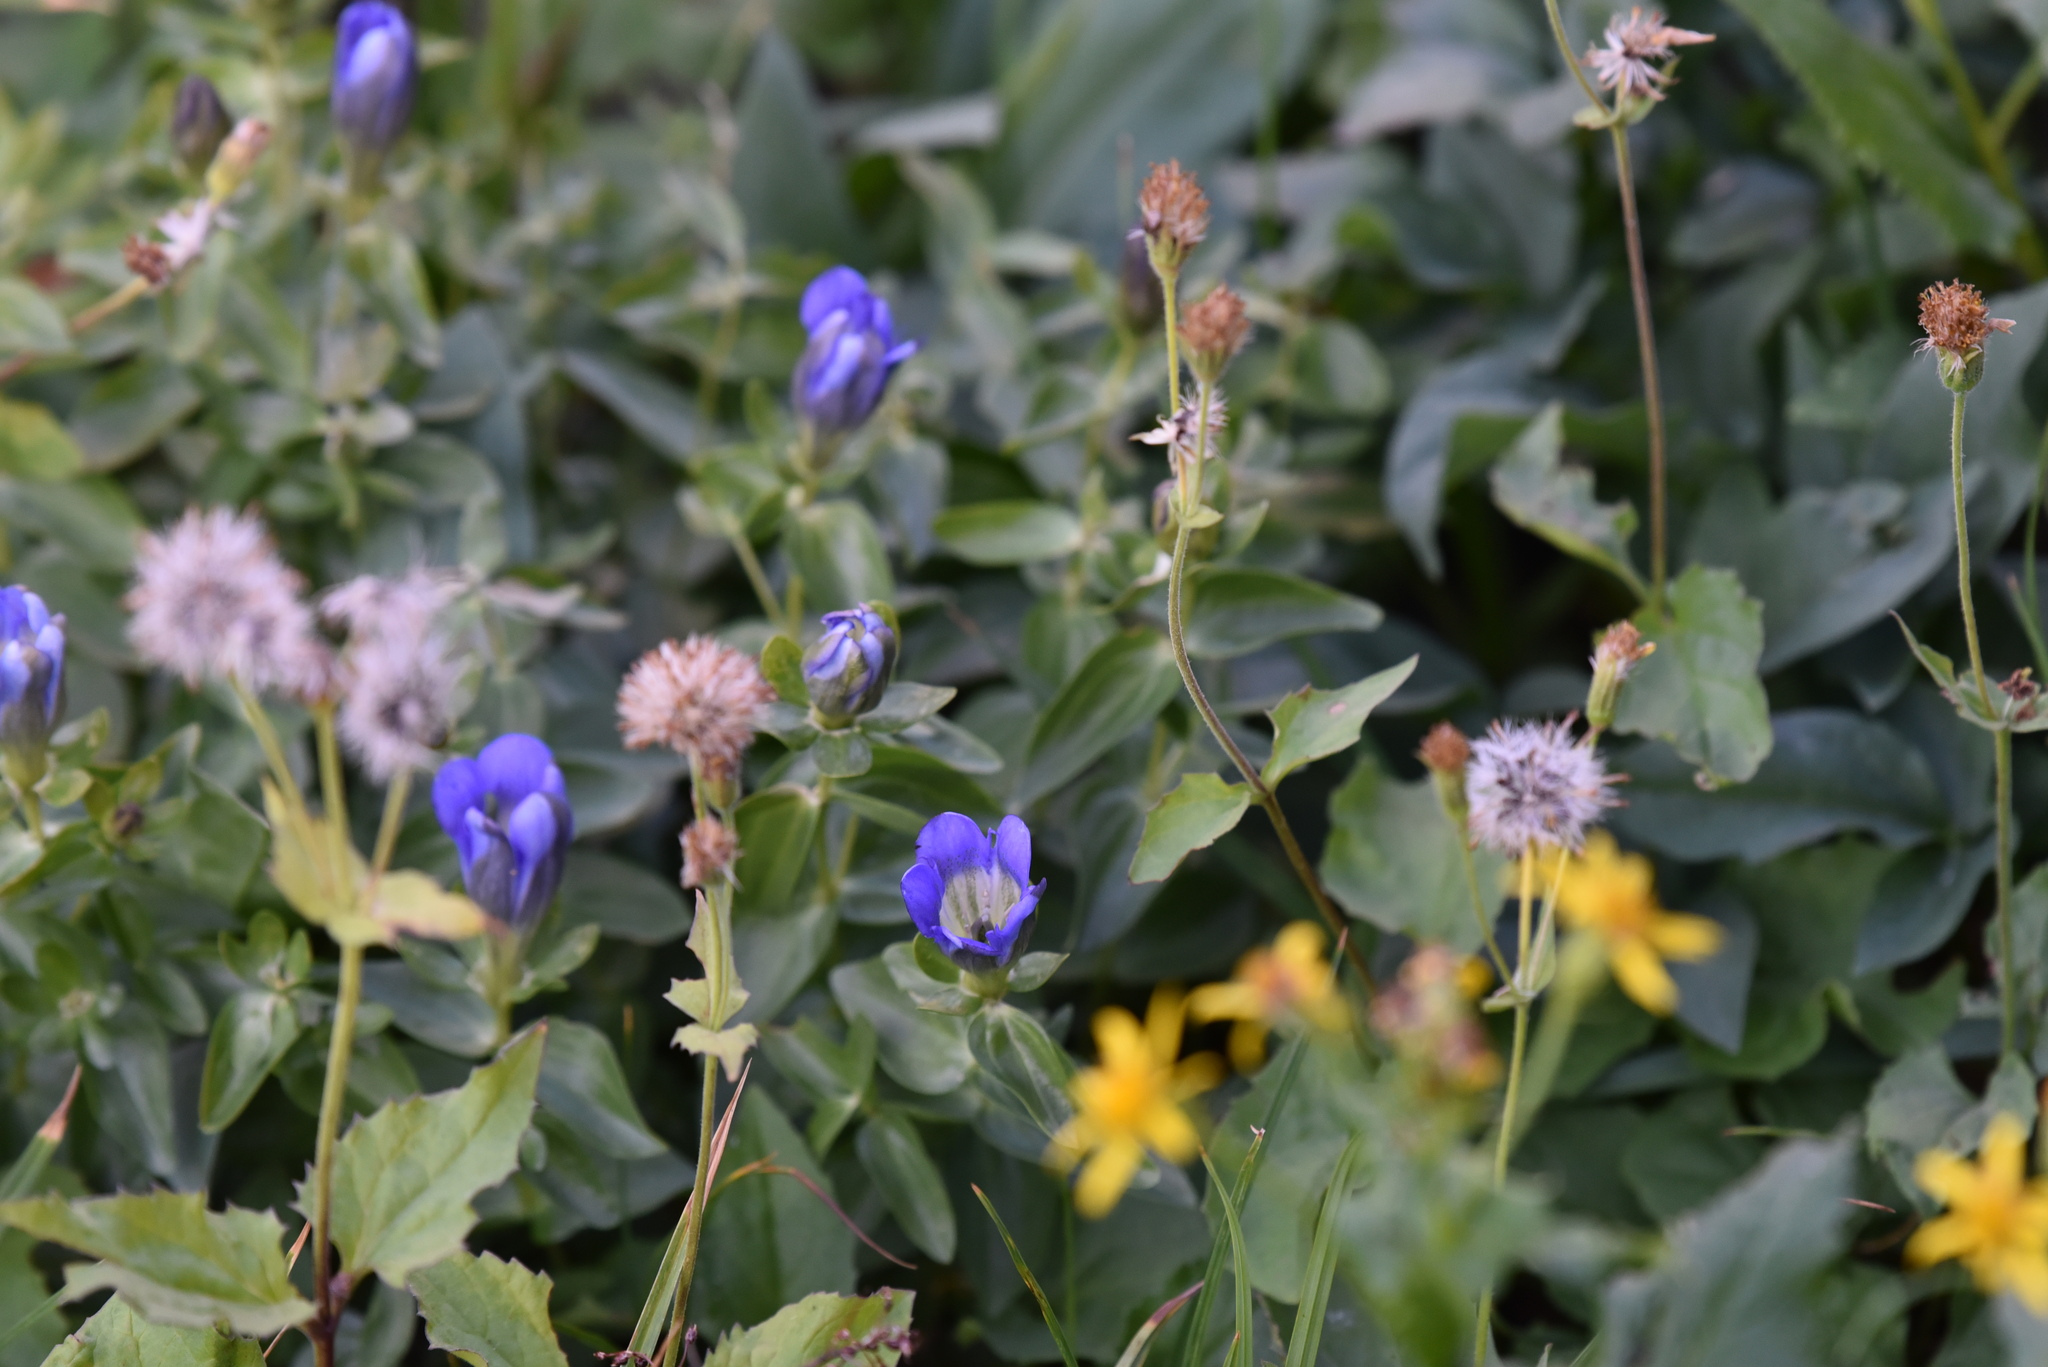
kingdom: Plantae
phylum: Tracheophyta
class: Magnoliopsida
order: Gentianales
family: Gentianaceae
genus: Gentiana
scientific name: Gentiana calycosa
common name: Rainier pleated gentian
